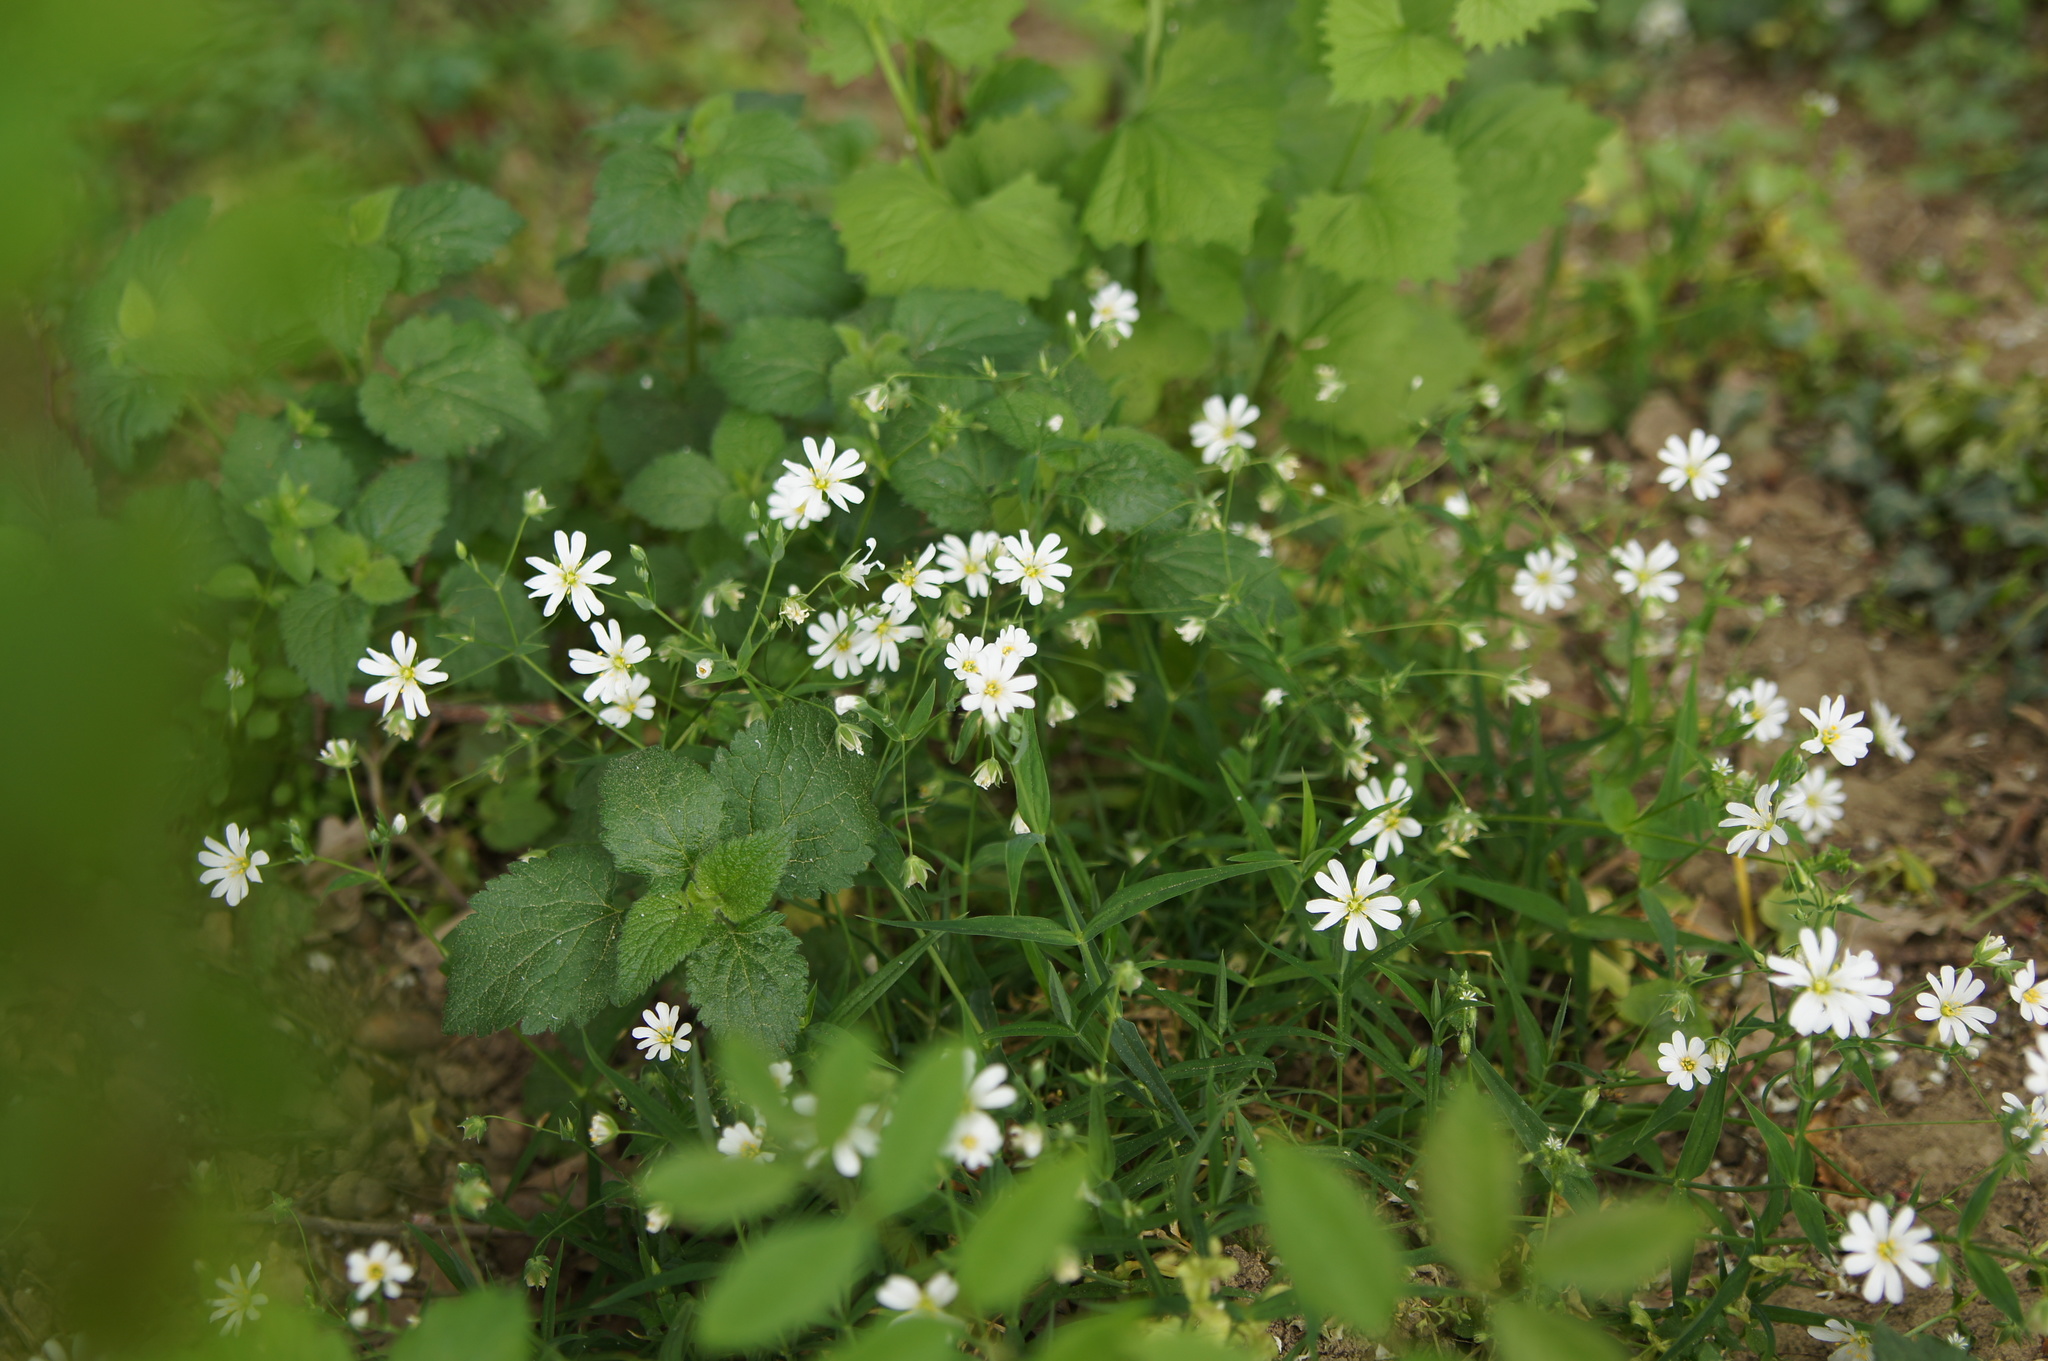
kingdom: Plantae
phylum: Tracheophyta
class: Magnoliopsida
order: Caryophyllales
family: Caryophyllaceae
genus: Rabelera
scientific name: Rabelera holostea
